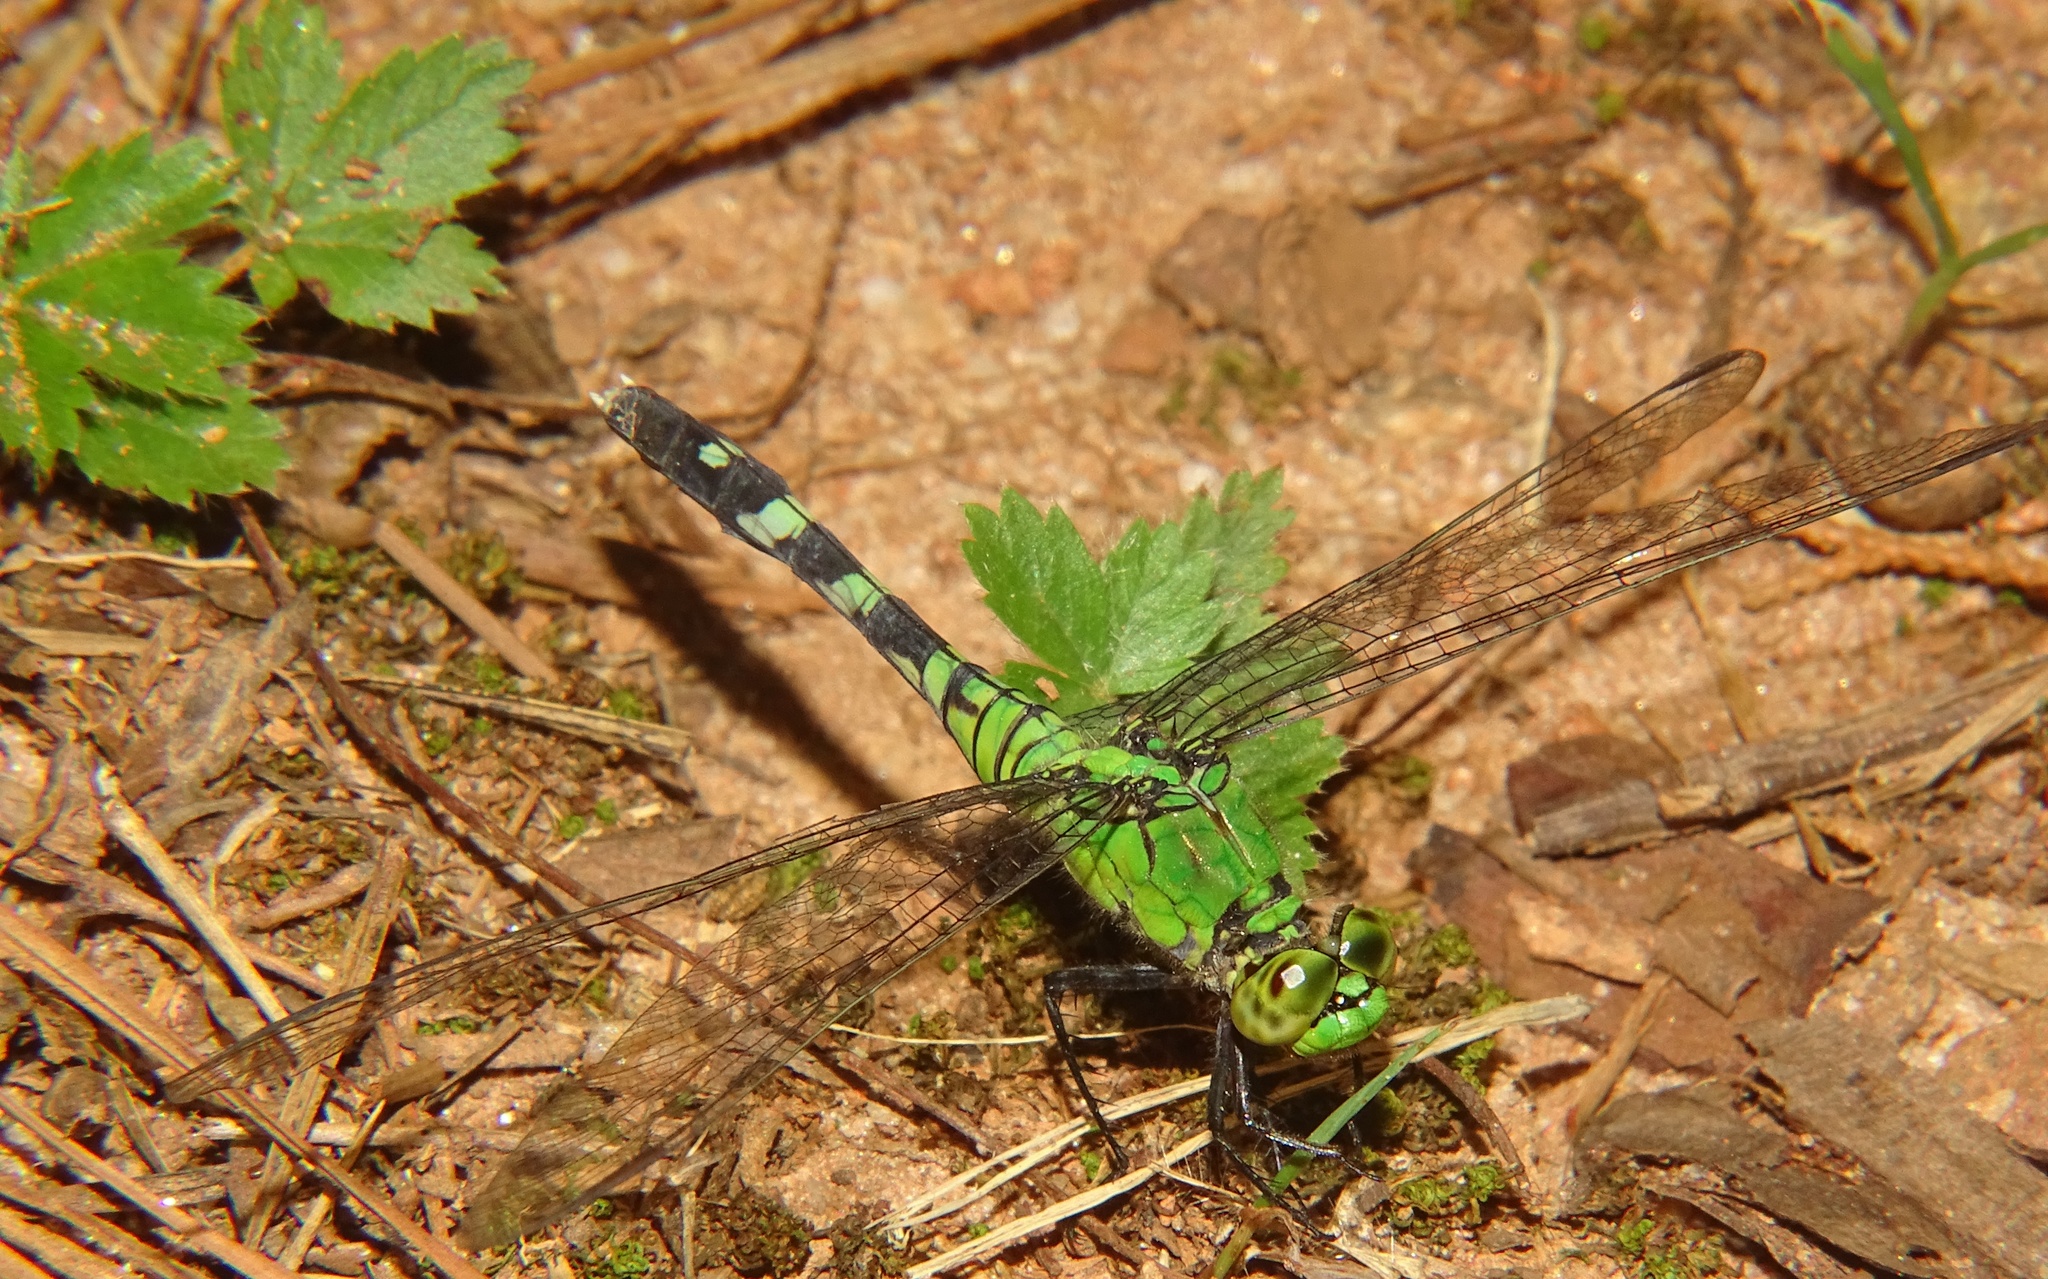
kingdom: Animalia
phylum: Arthropoda
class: Insecta
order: Odonata
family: Libellulidae
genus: Erythemis
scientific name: Erythemis simplicicollis
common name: Eastern pondhawk
